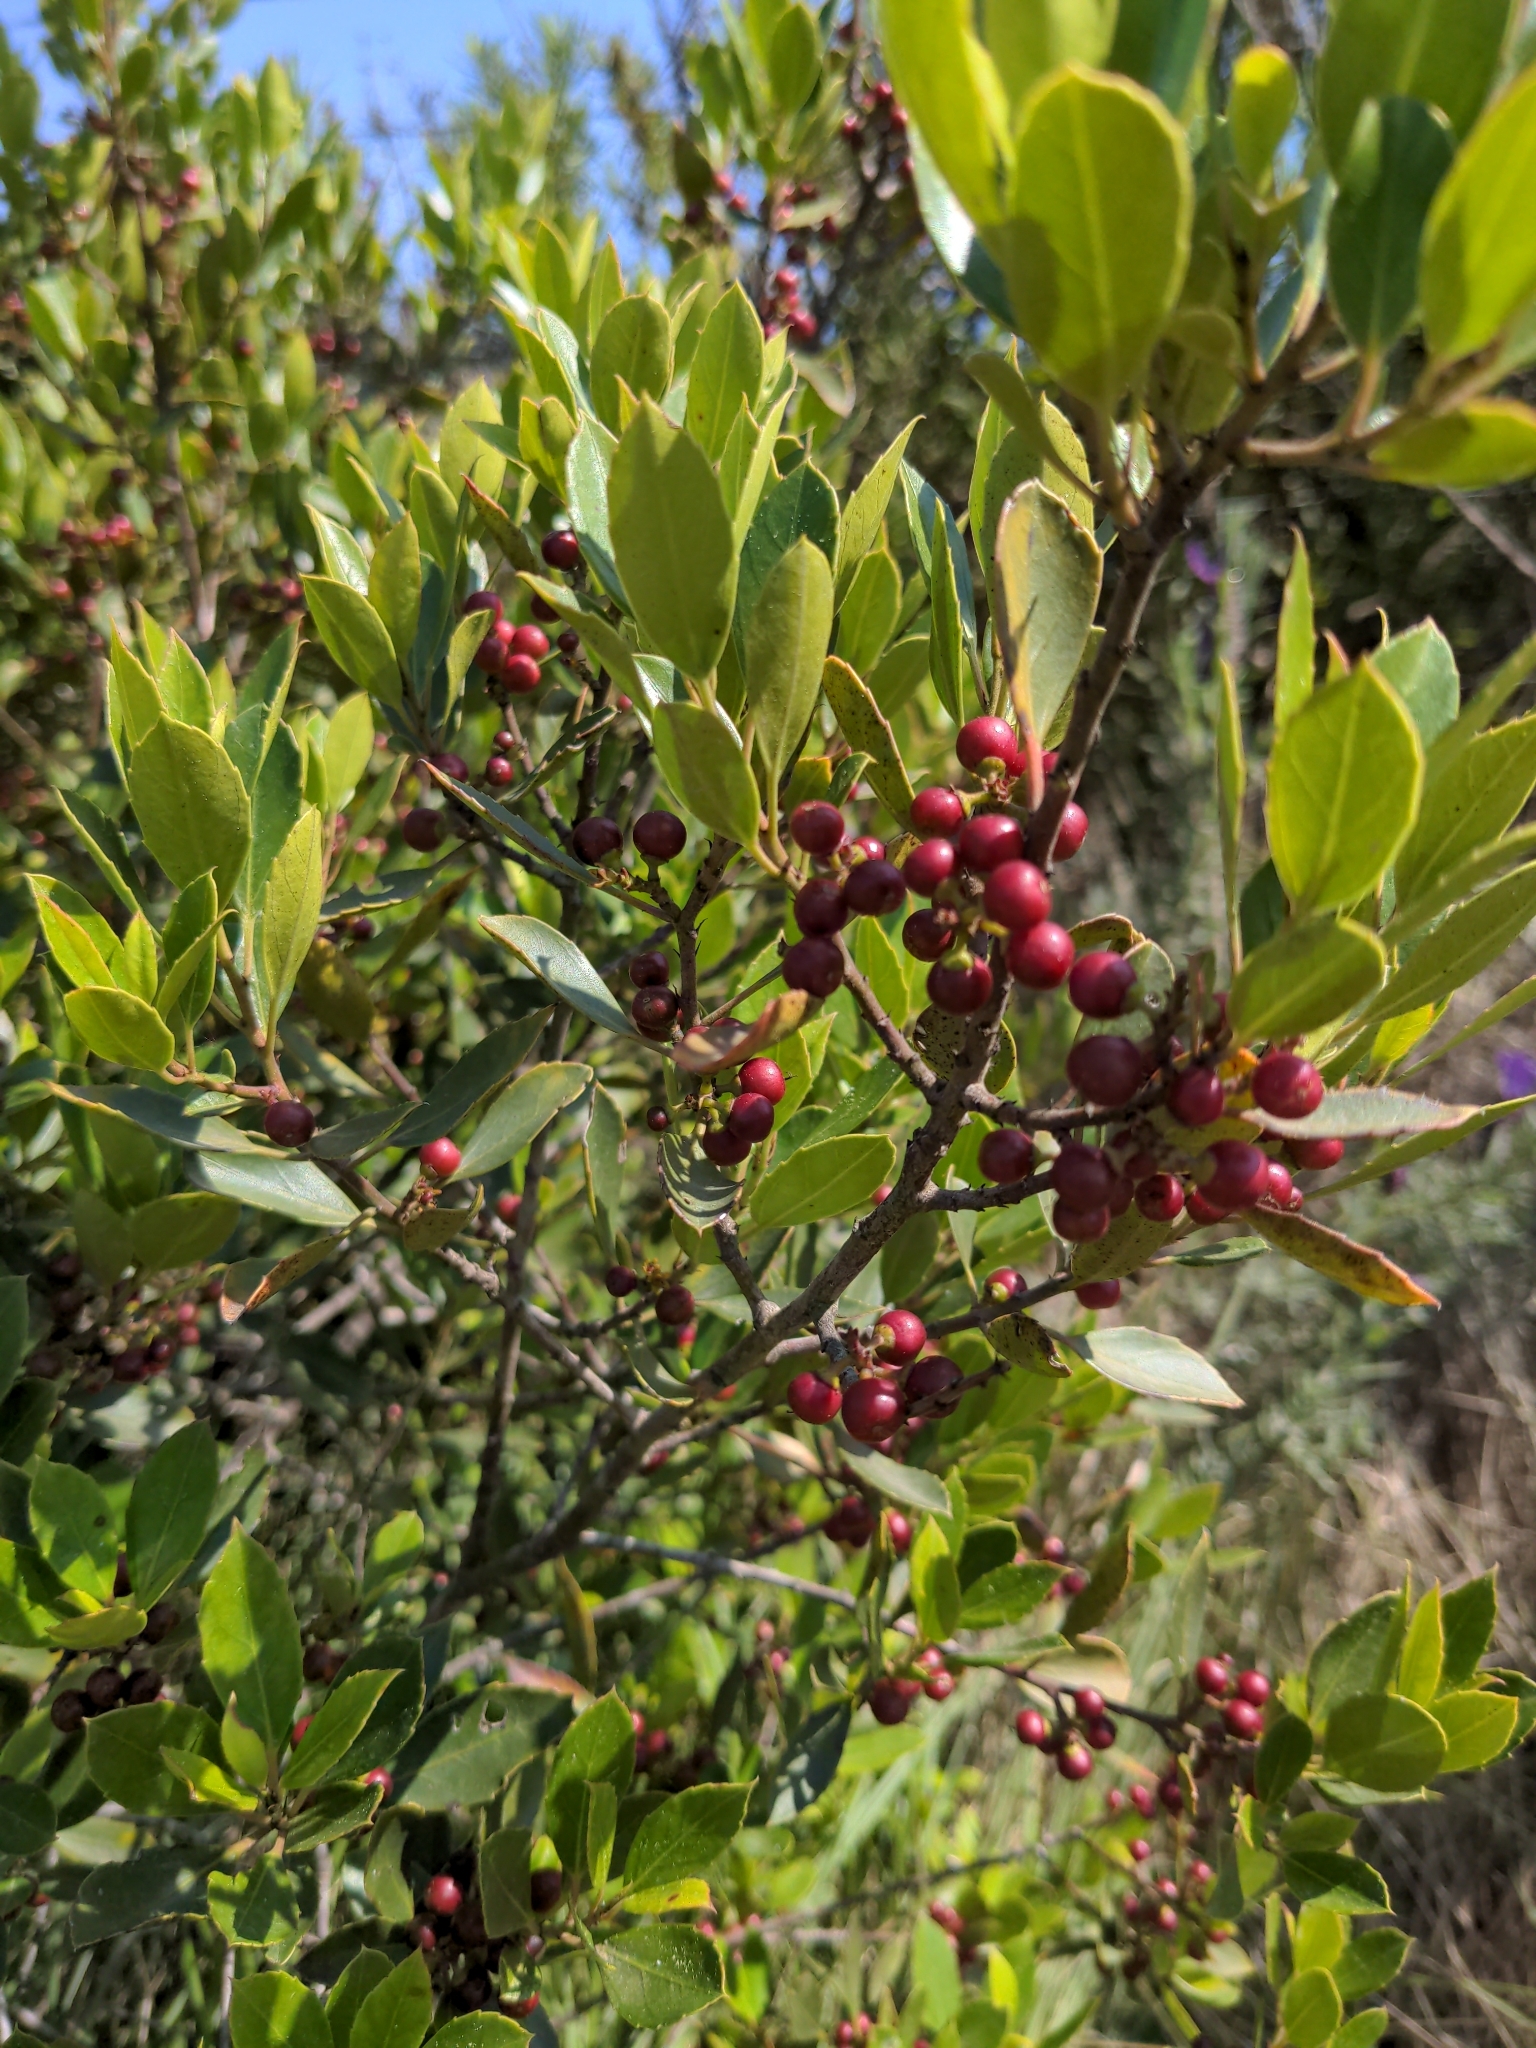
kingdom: Plantae
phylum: Tracheophyta
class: Magnoliopsida
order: Rosales
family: Rhamnaceae
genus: Rhamnus
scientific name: Rhamnus alaternus
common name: Mediterranean buckthorn
